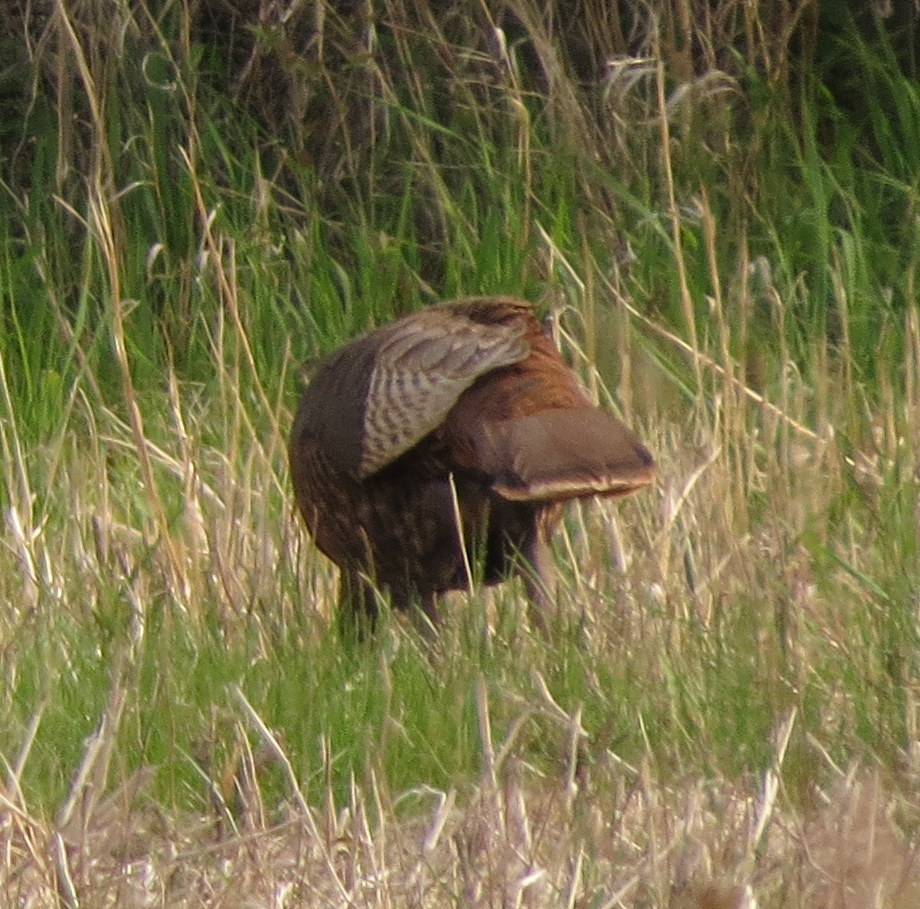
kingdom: Animalia
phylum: Chordata
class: Aves
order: Galliformes
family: Phasianidae
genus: Meleagris
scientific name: Meleagris gallopavo
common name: Wild turkey
